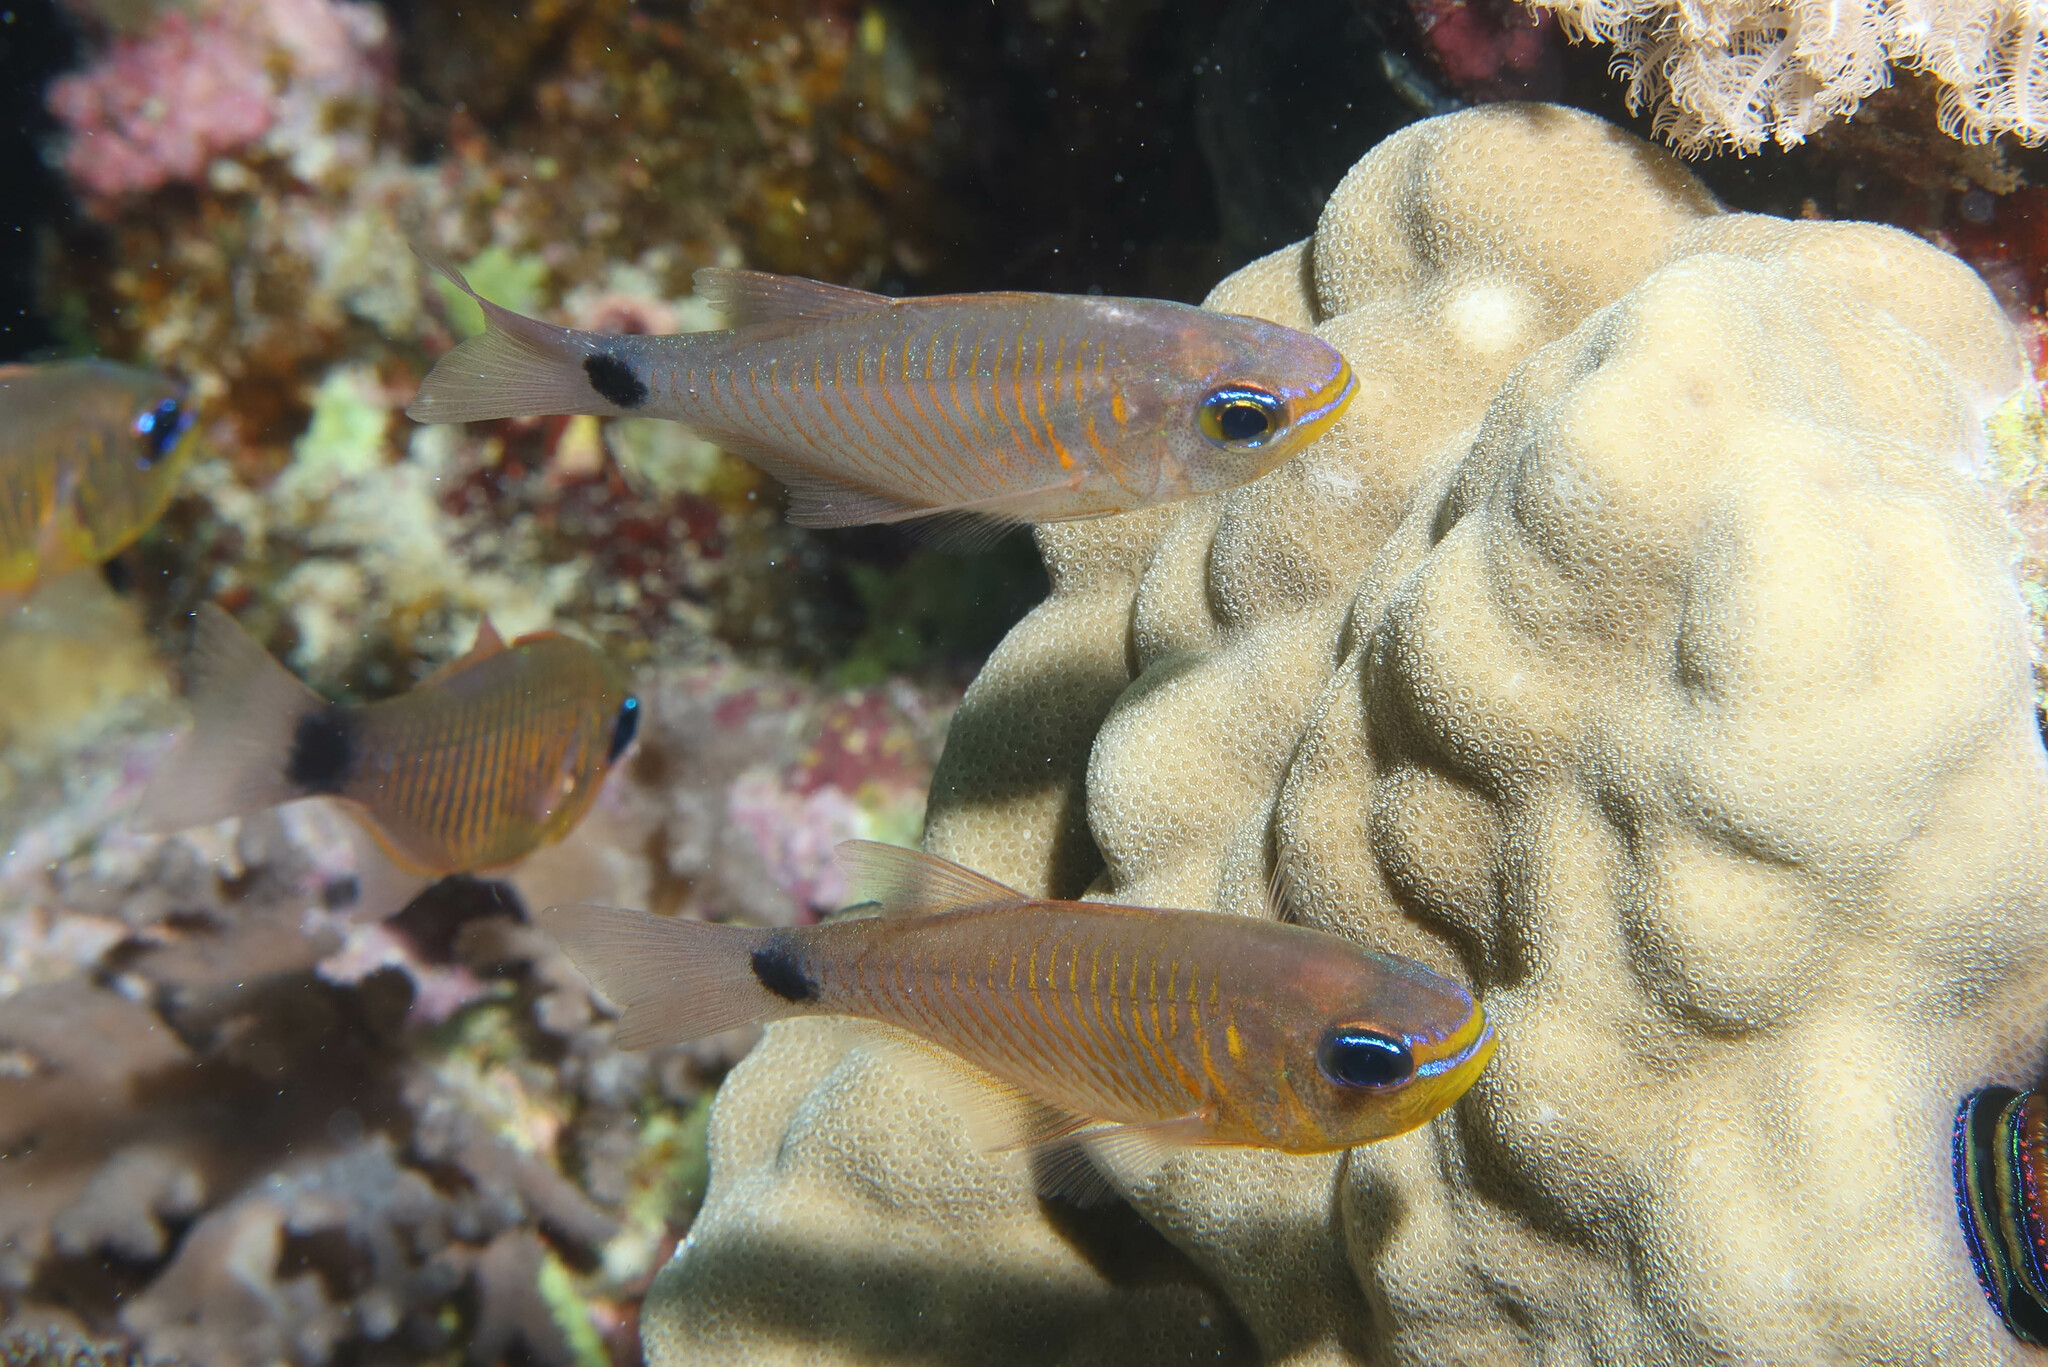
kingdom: Animalia
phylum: Chordata
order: Perciformes
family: Apogonidae
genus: Taeniamia
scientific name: Taeniamia fucata
